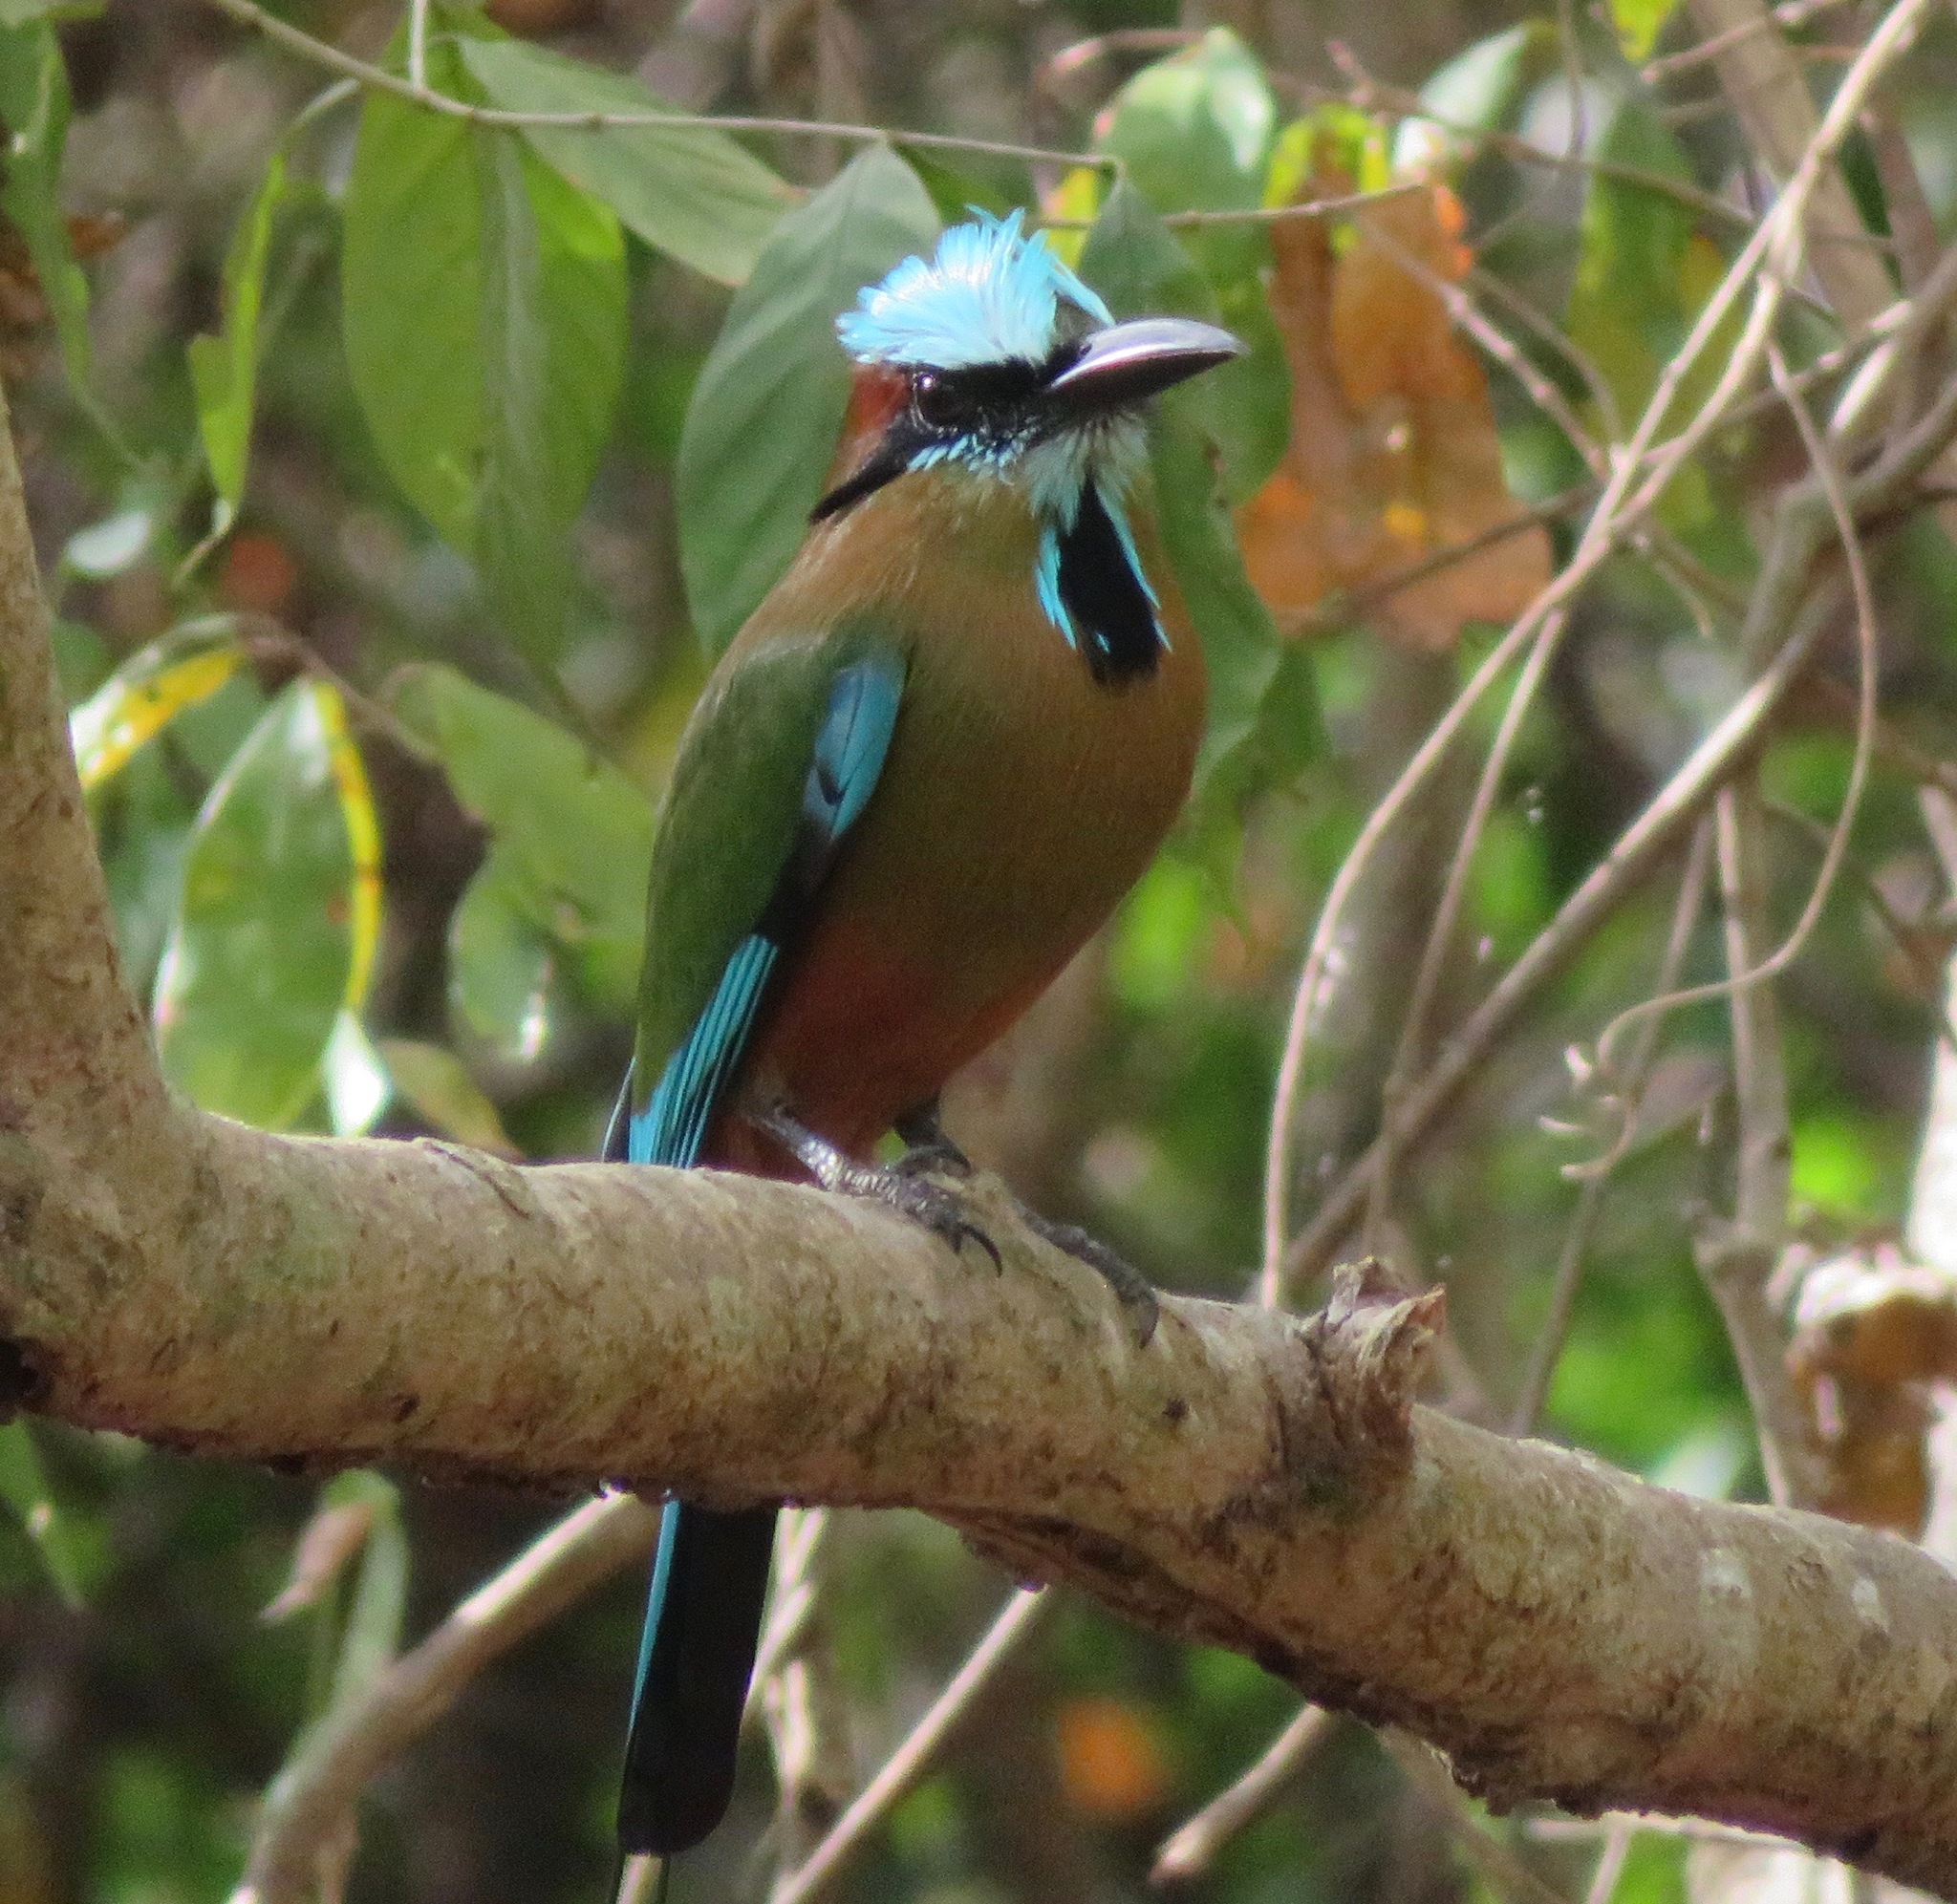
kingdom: Animalia
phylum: Chordata
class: Aves
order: Coraciiformes
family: Momotidae
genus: Eumomota
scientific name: Eumomota superciliosa
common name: Turquoise-browed motmot
